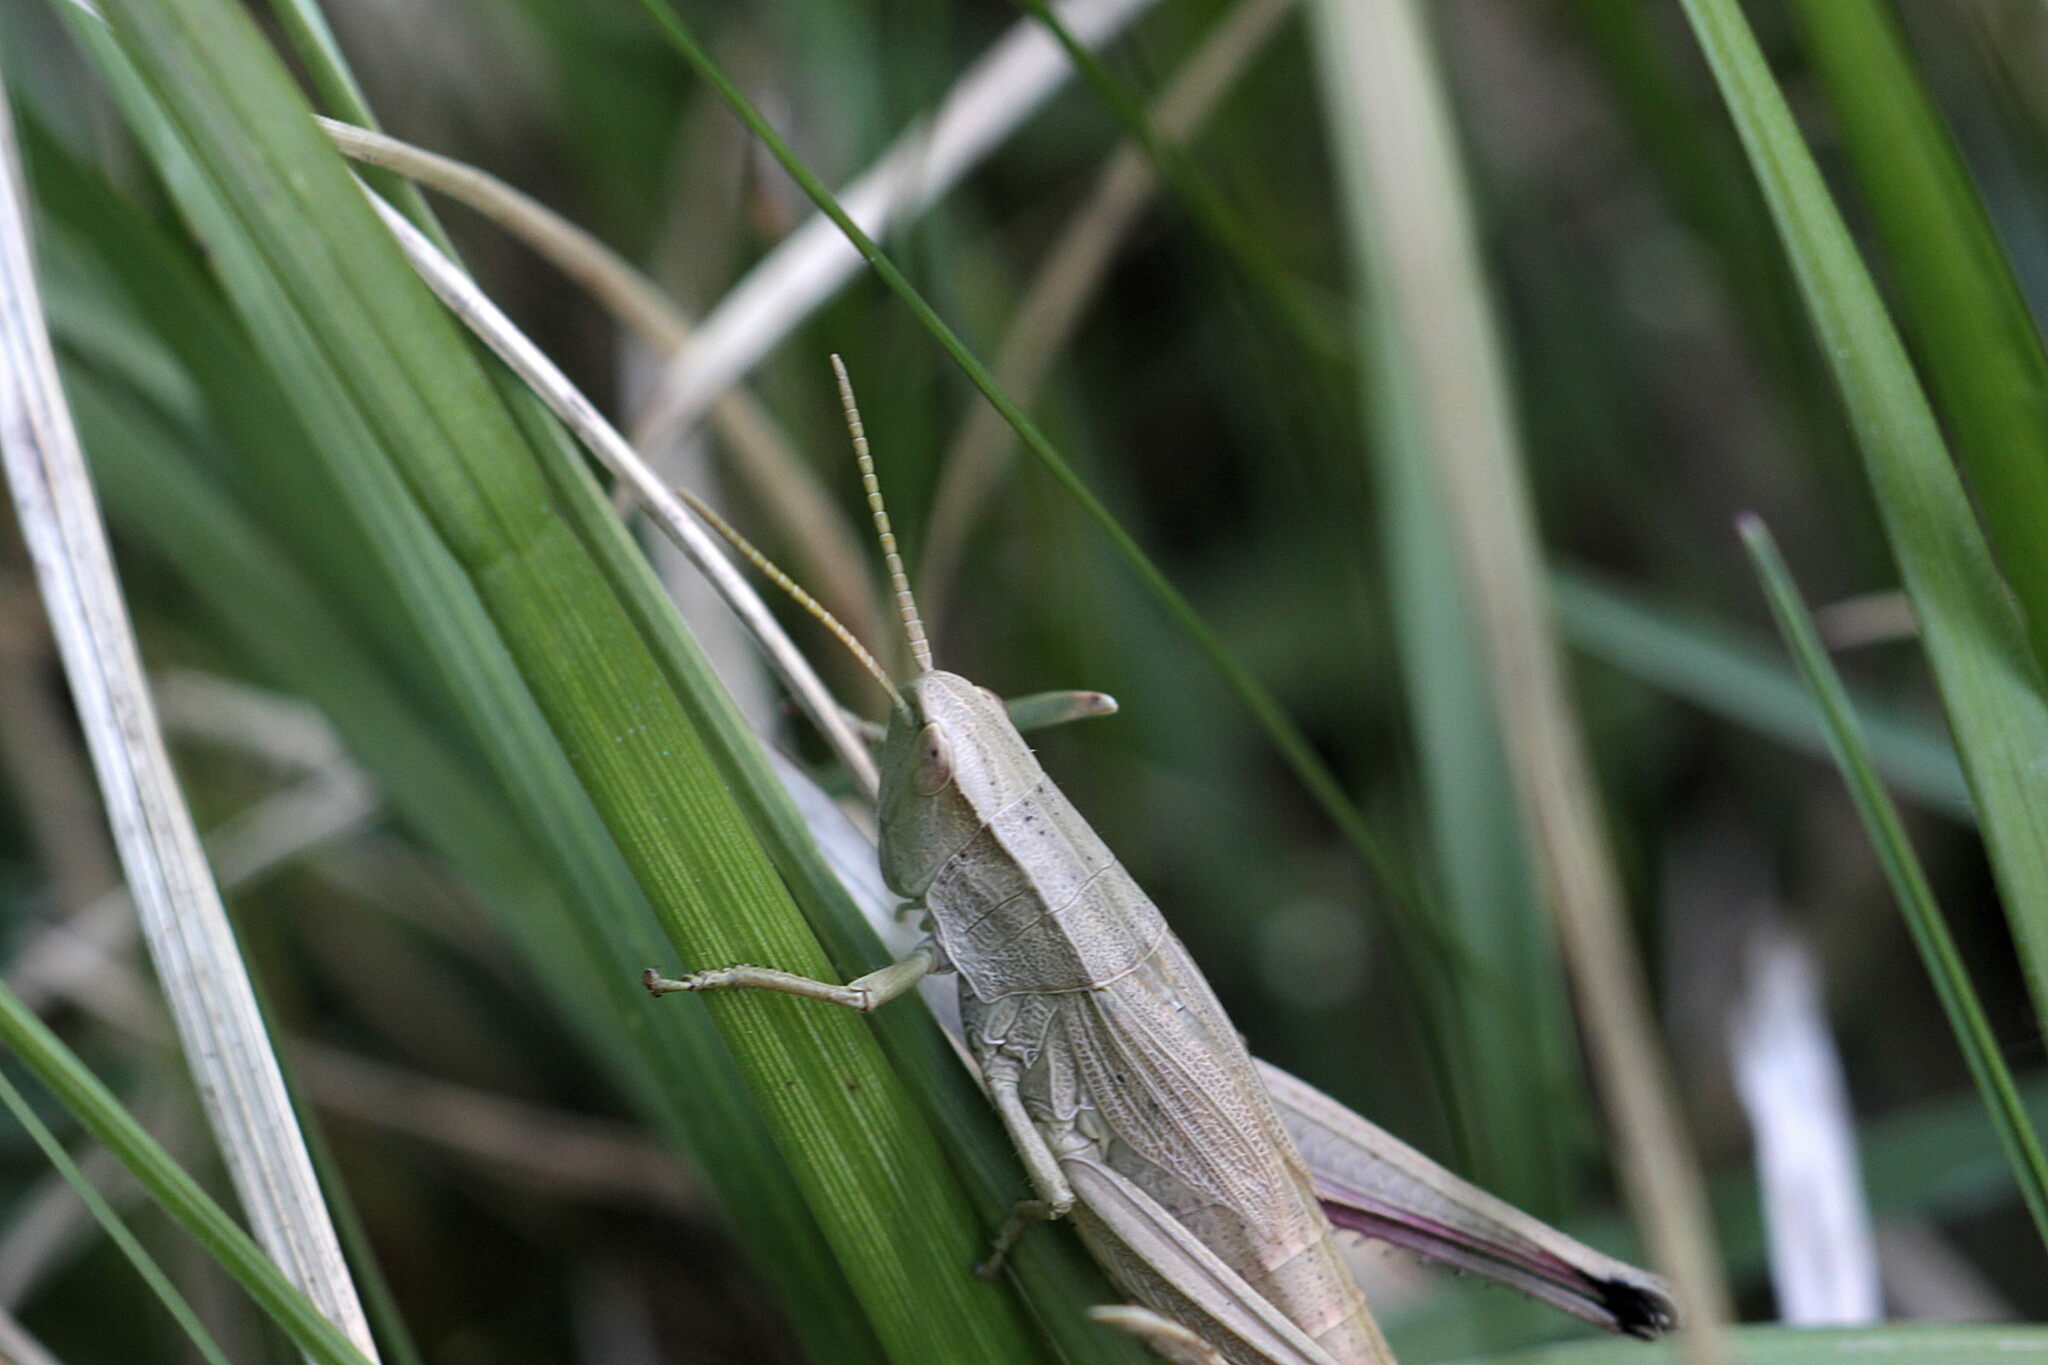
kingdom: Animalia
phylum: Arthropoda
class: Insecta
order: Orthoptera
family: Acrididae
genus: Chrysochraon
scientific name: Chrysochraon dispar
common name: Large gold grasshopper
